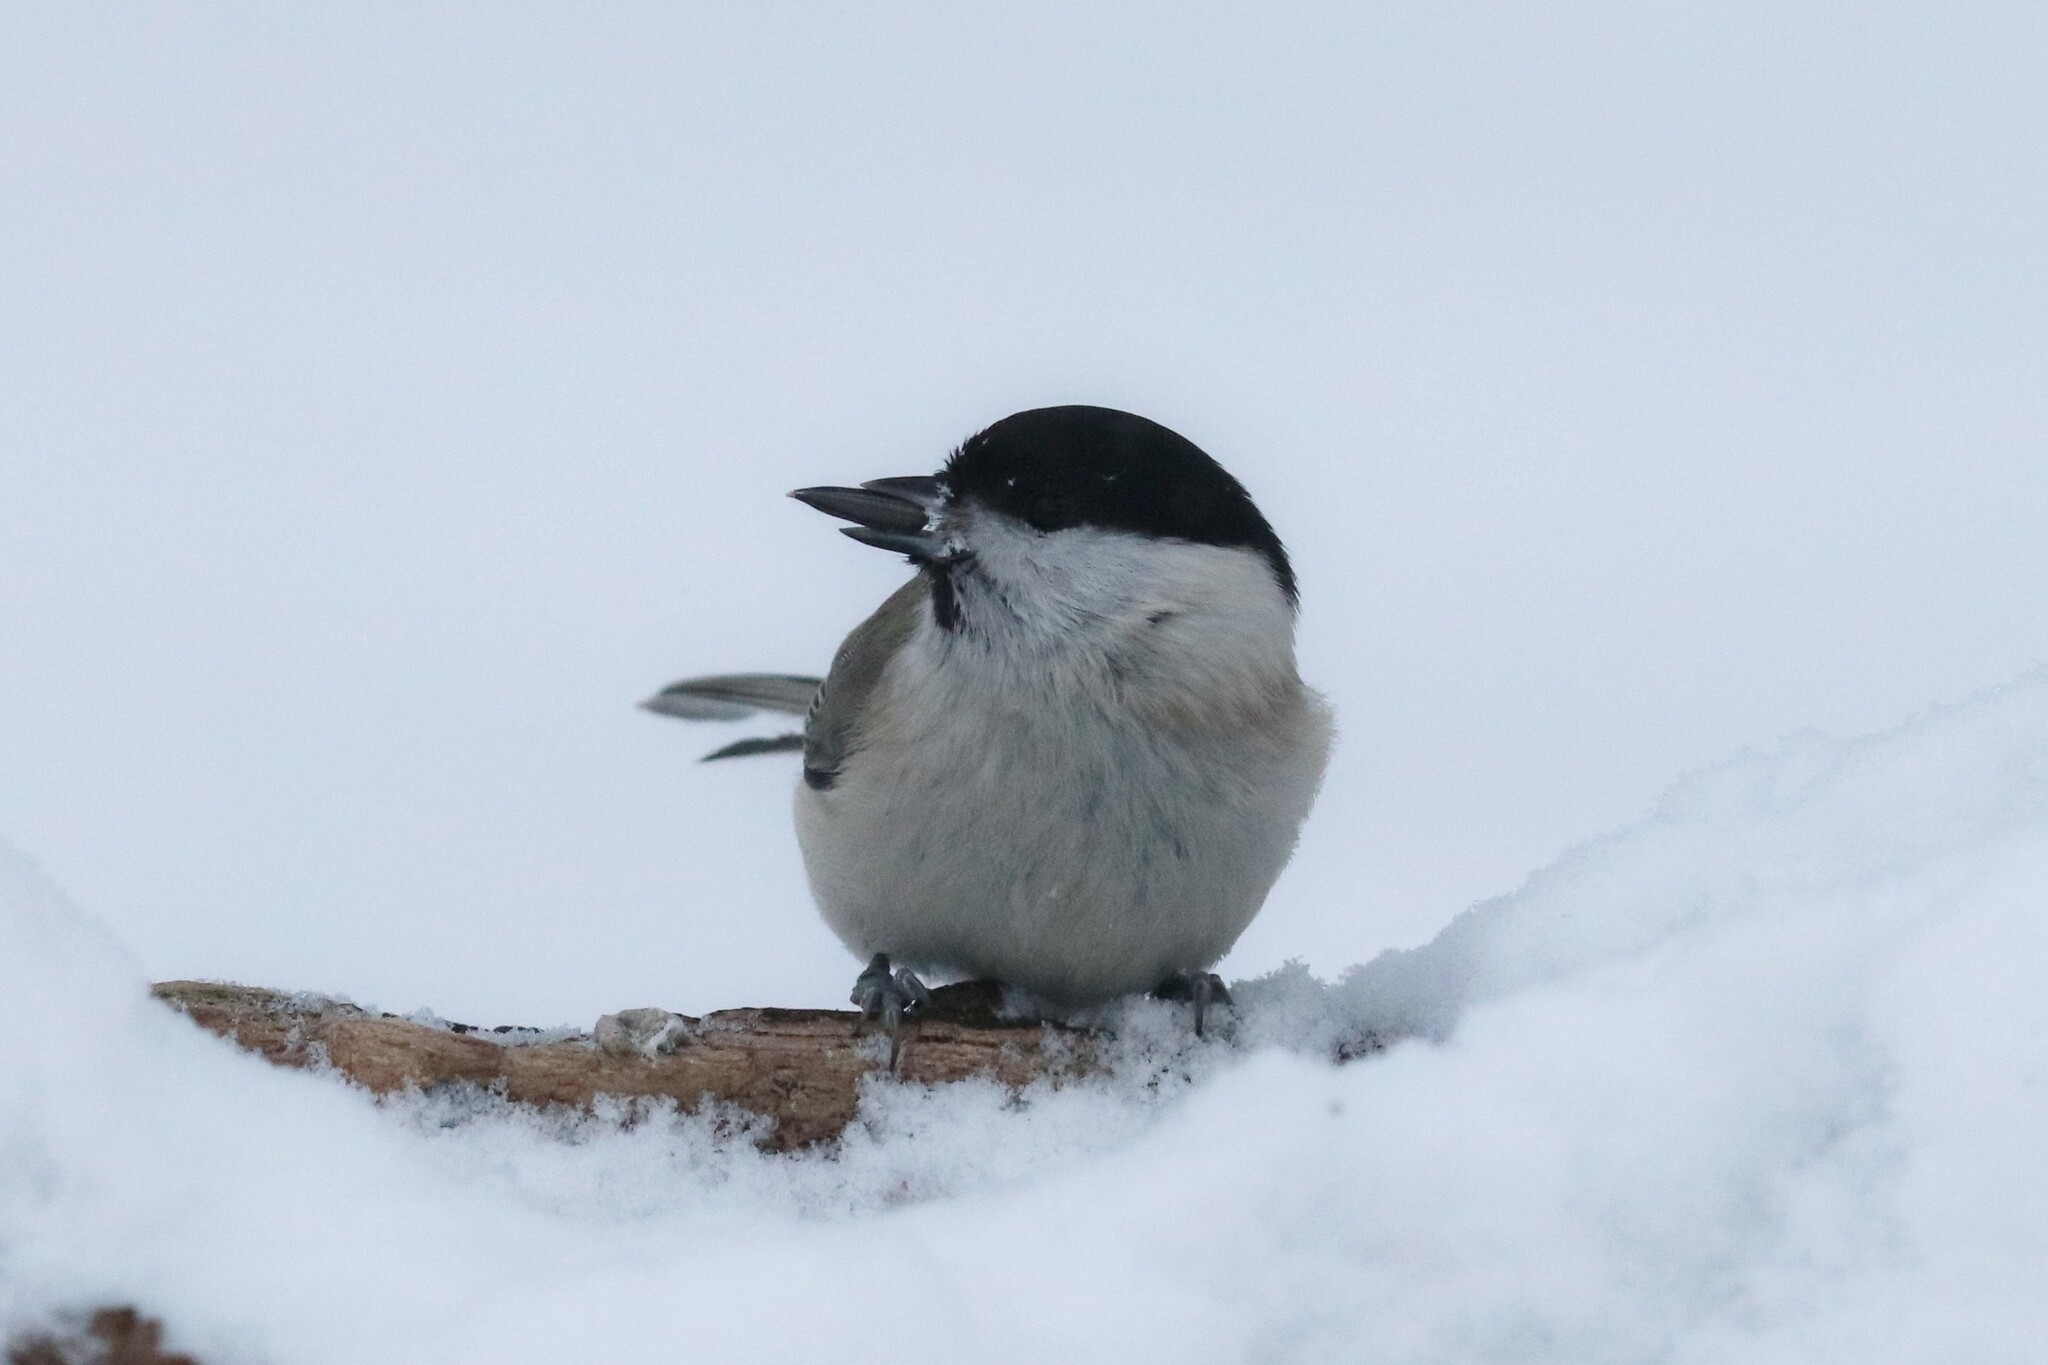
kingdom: Animalia
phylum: Chordata
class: Aves
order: Passeriformes
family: Paridae
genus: Poecile
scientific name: Poecile palustris
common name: Marsh tit
